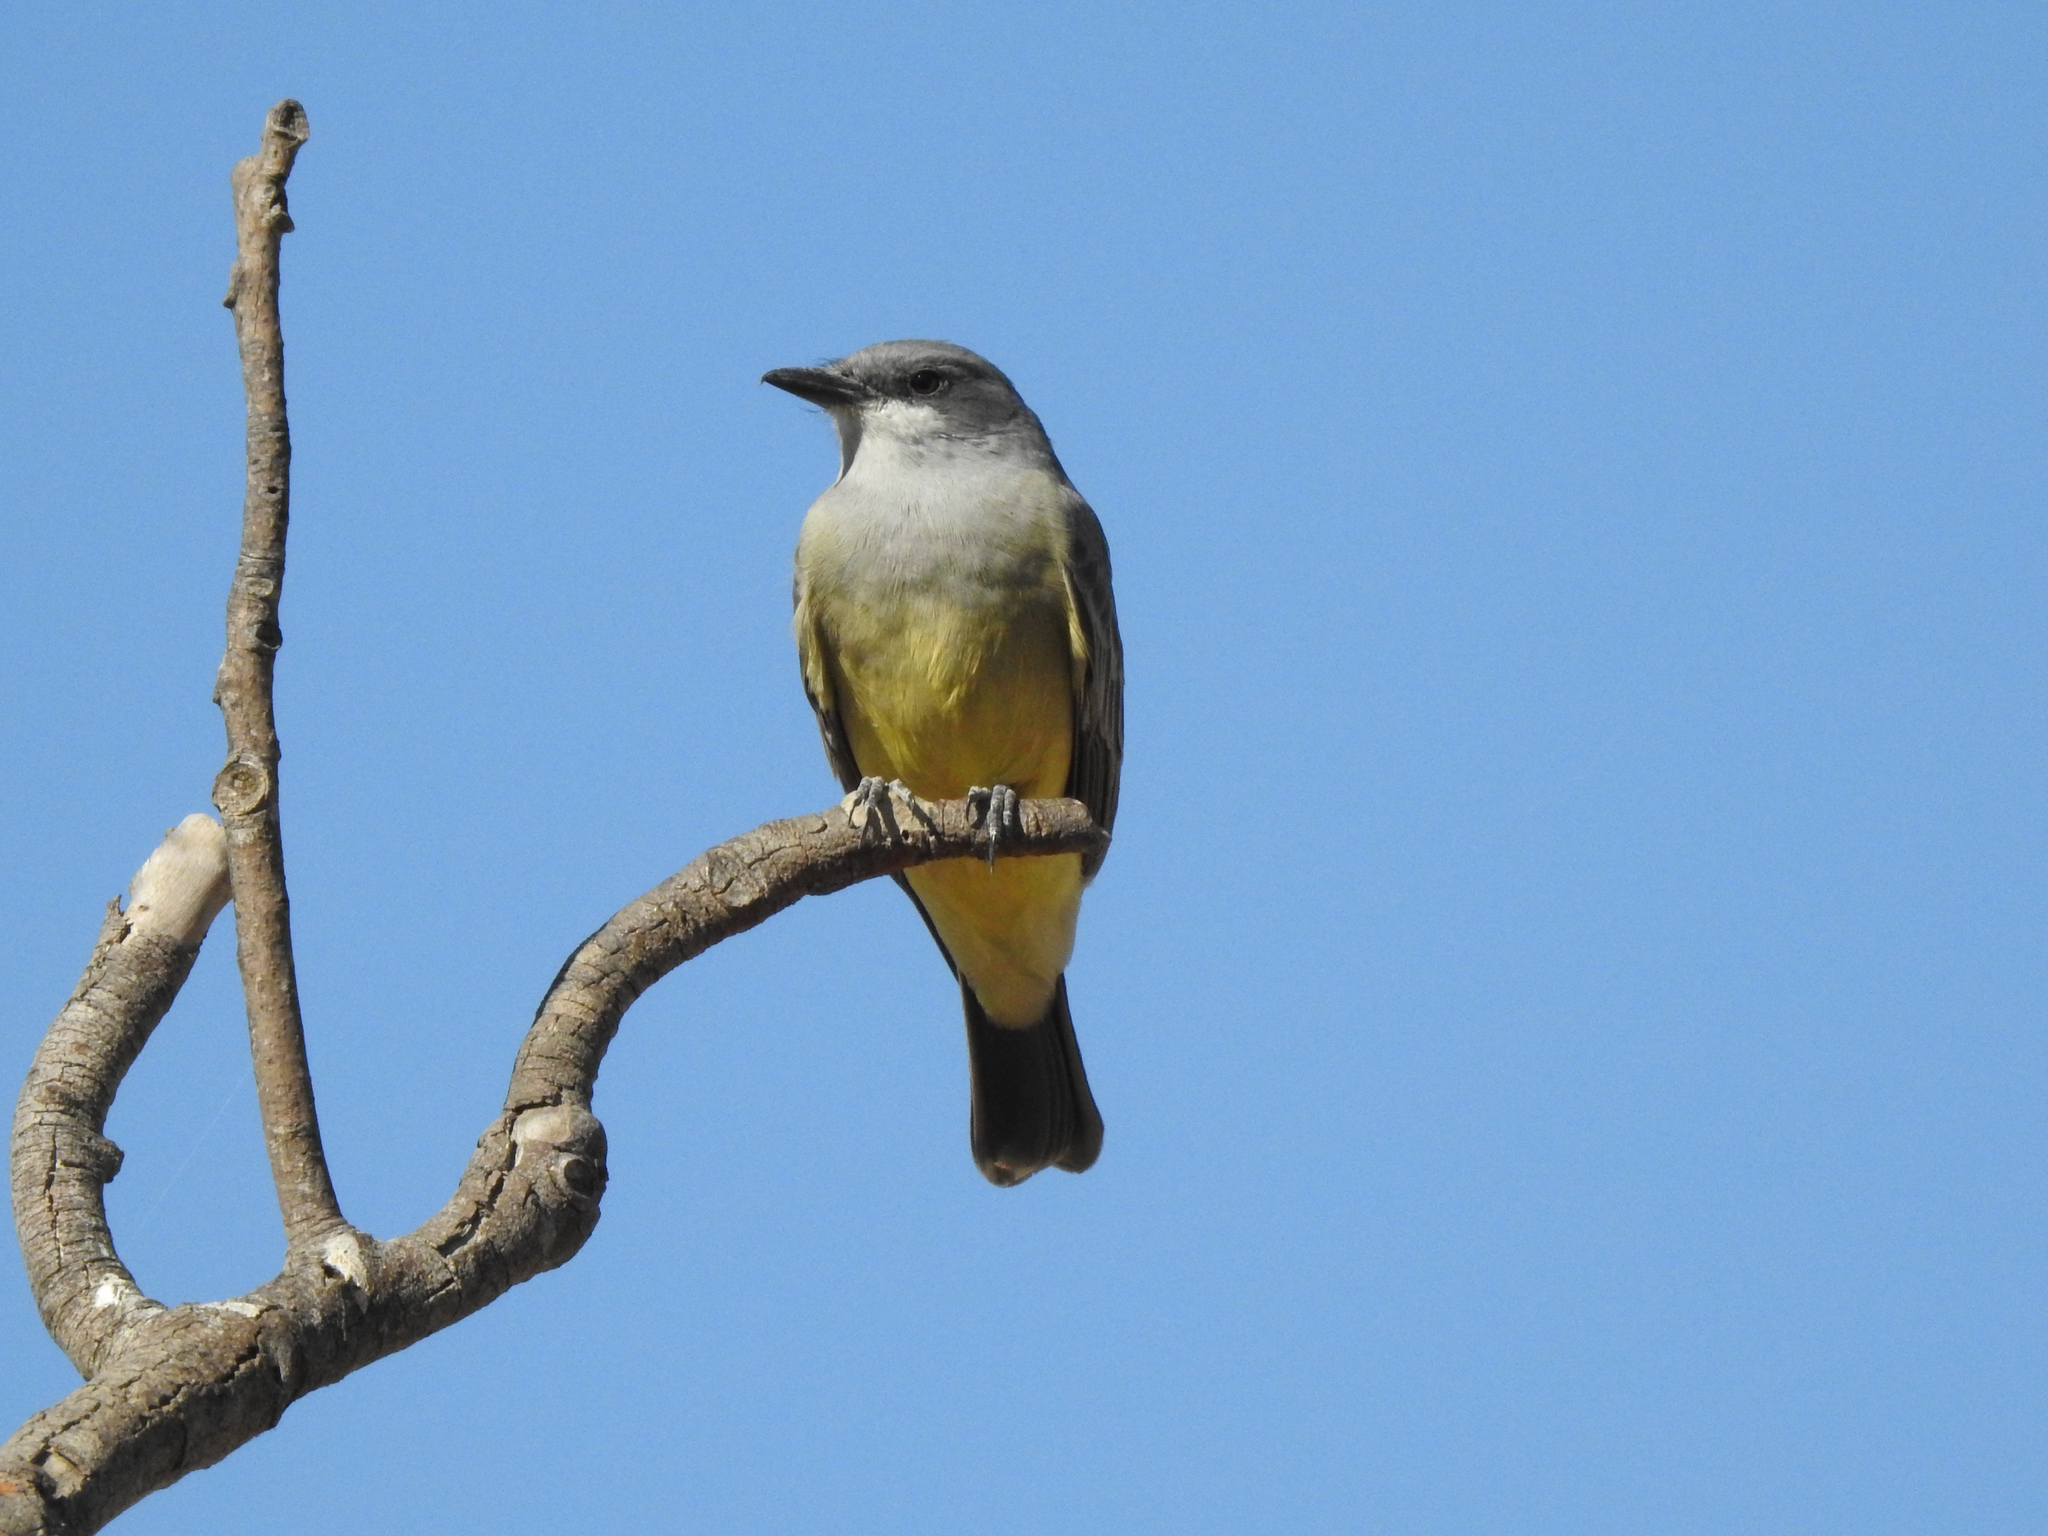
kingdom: Animalia
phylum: Chordata
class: Aves
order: Passeriformes
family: Tyrannidae
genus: Tyrannus
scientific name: Tyrannus vociferans
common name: Cassin's kingbird
